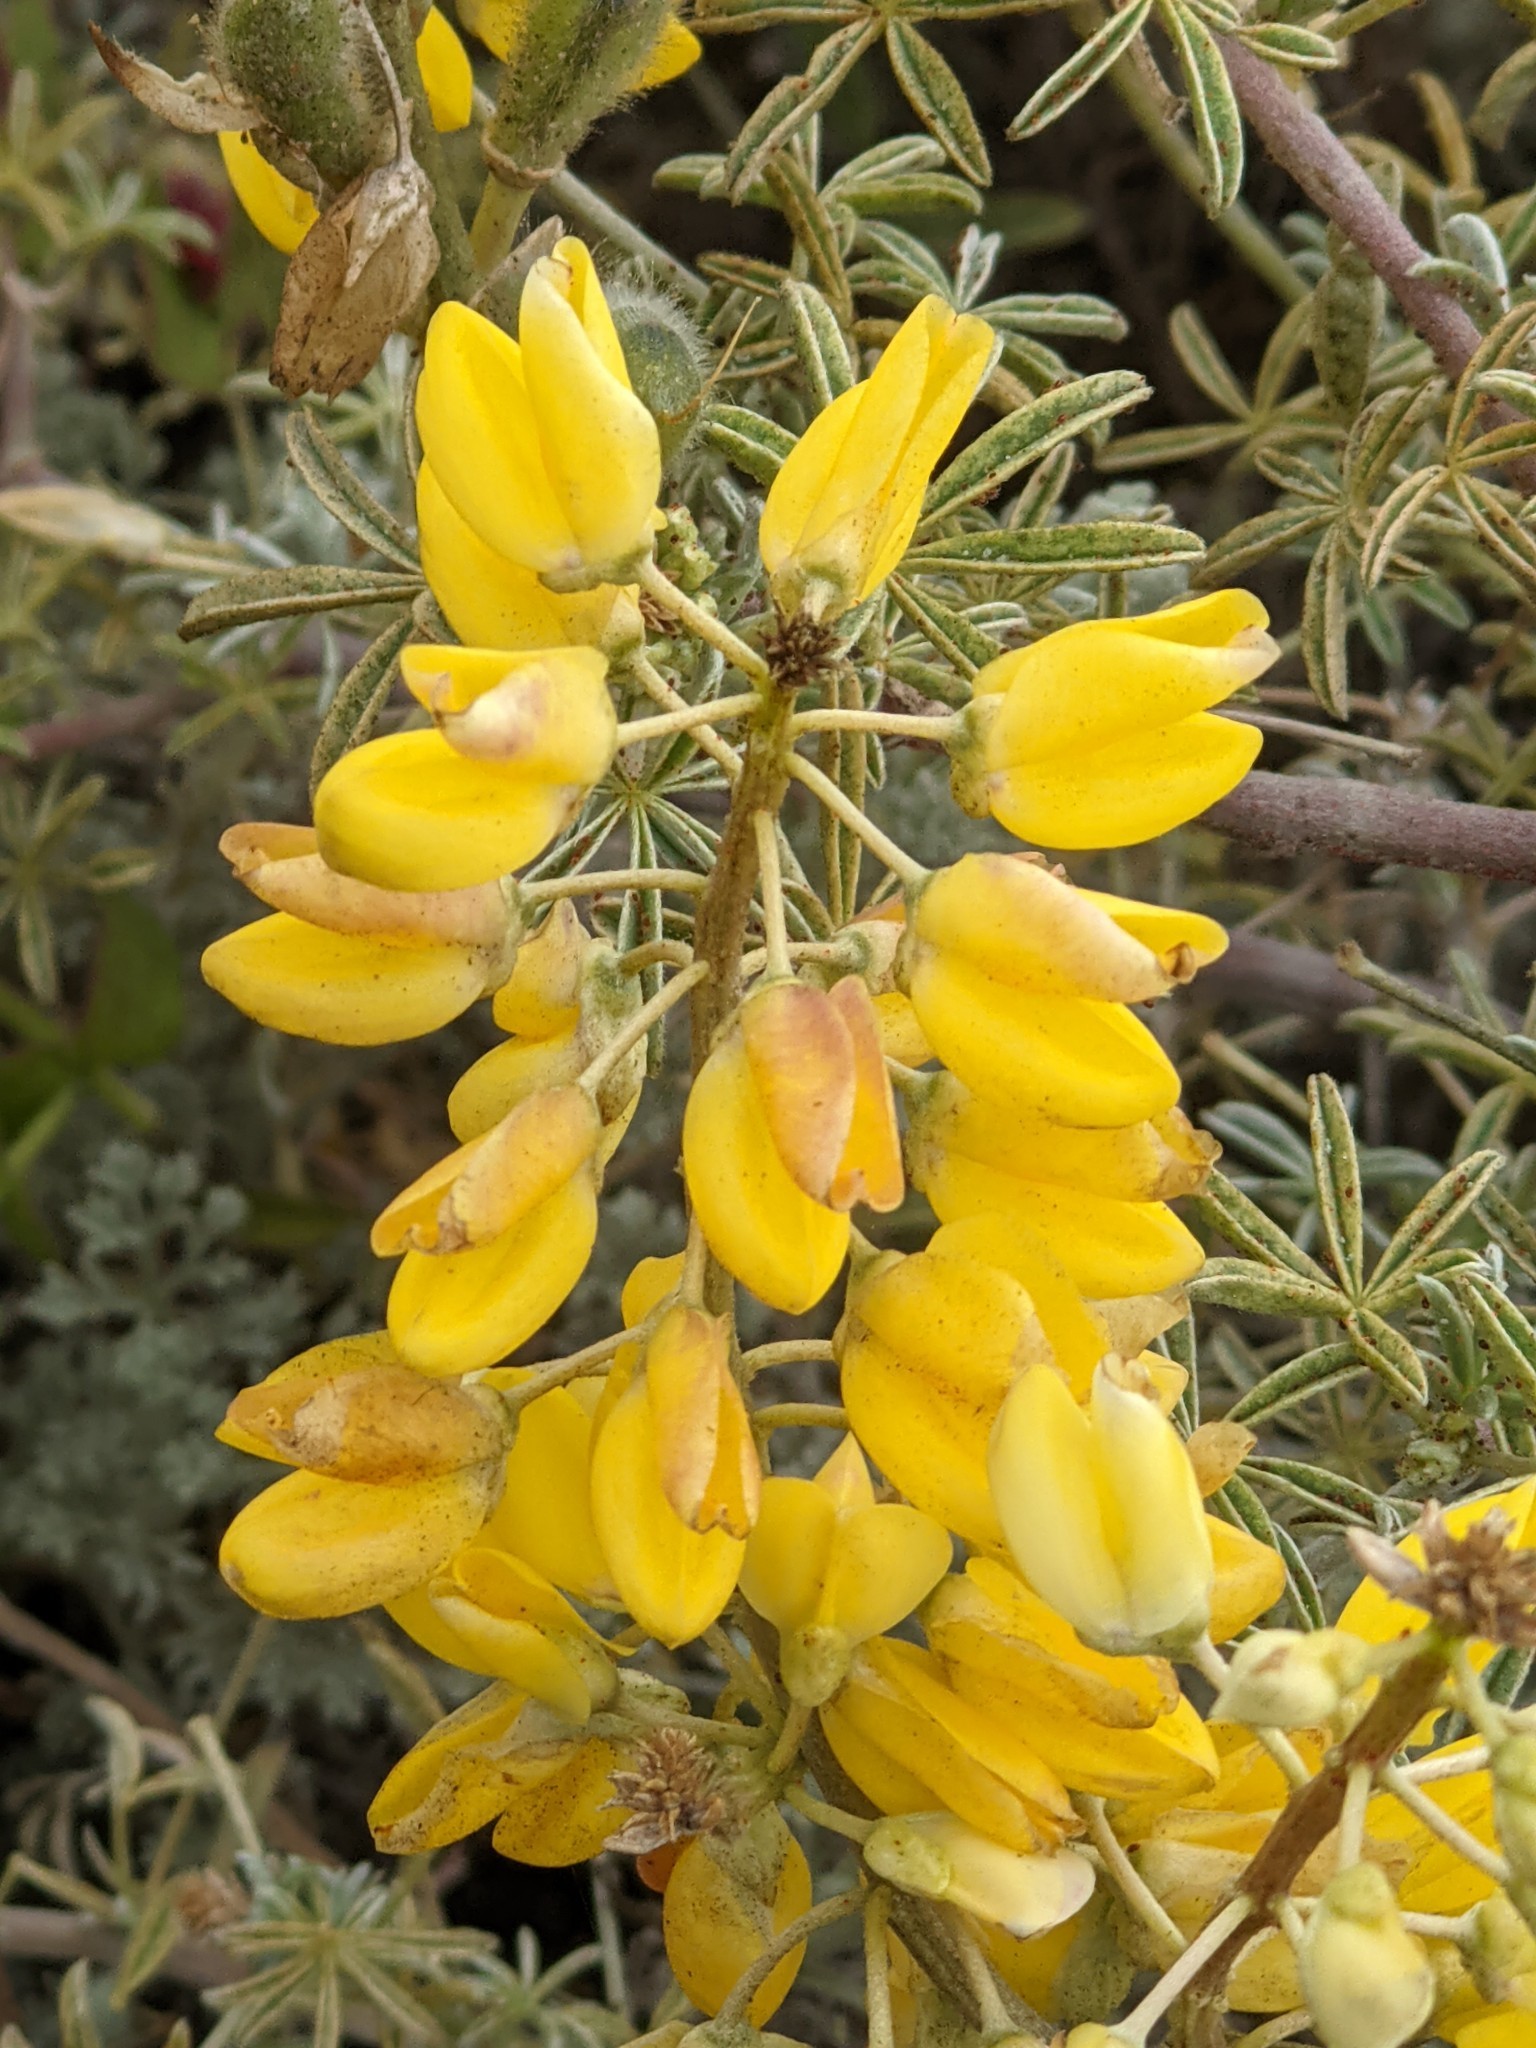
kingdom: Plantae
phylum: Tracheophyta
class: Magnoliopsida
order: Fabales
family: Fabaceae
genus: Lupinus
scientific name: Lupinus arboreus
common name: Yellow bush lupine
